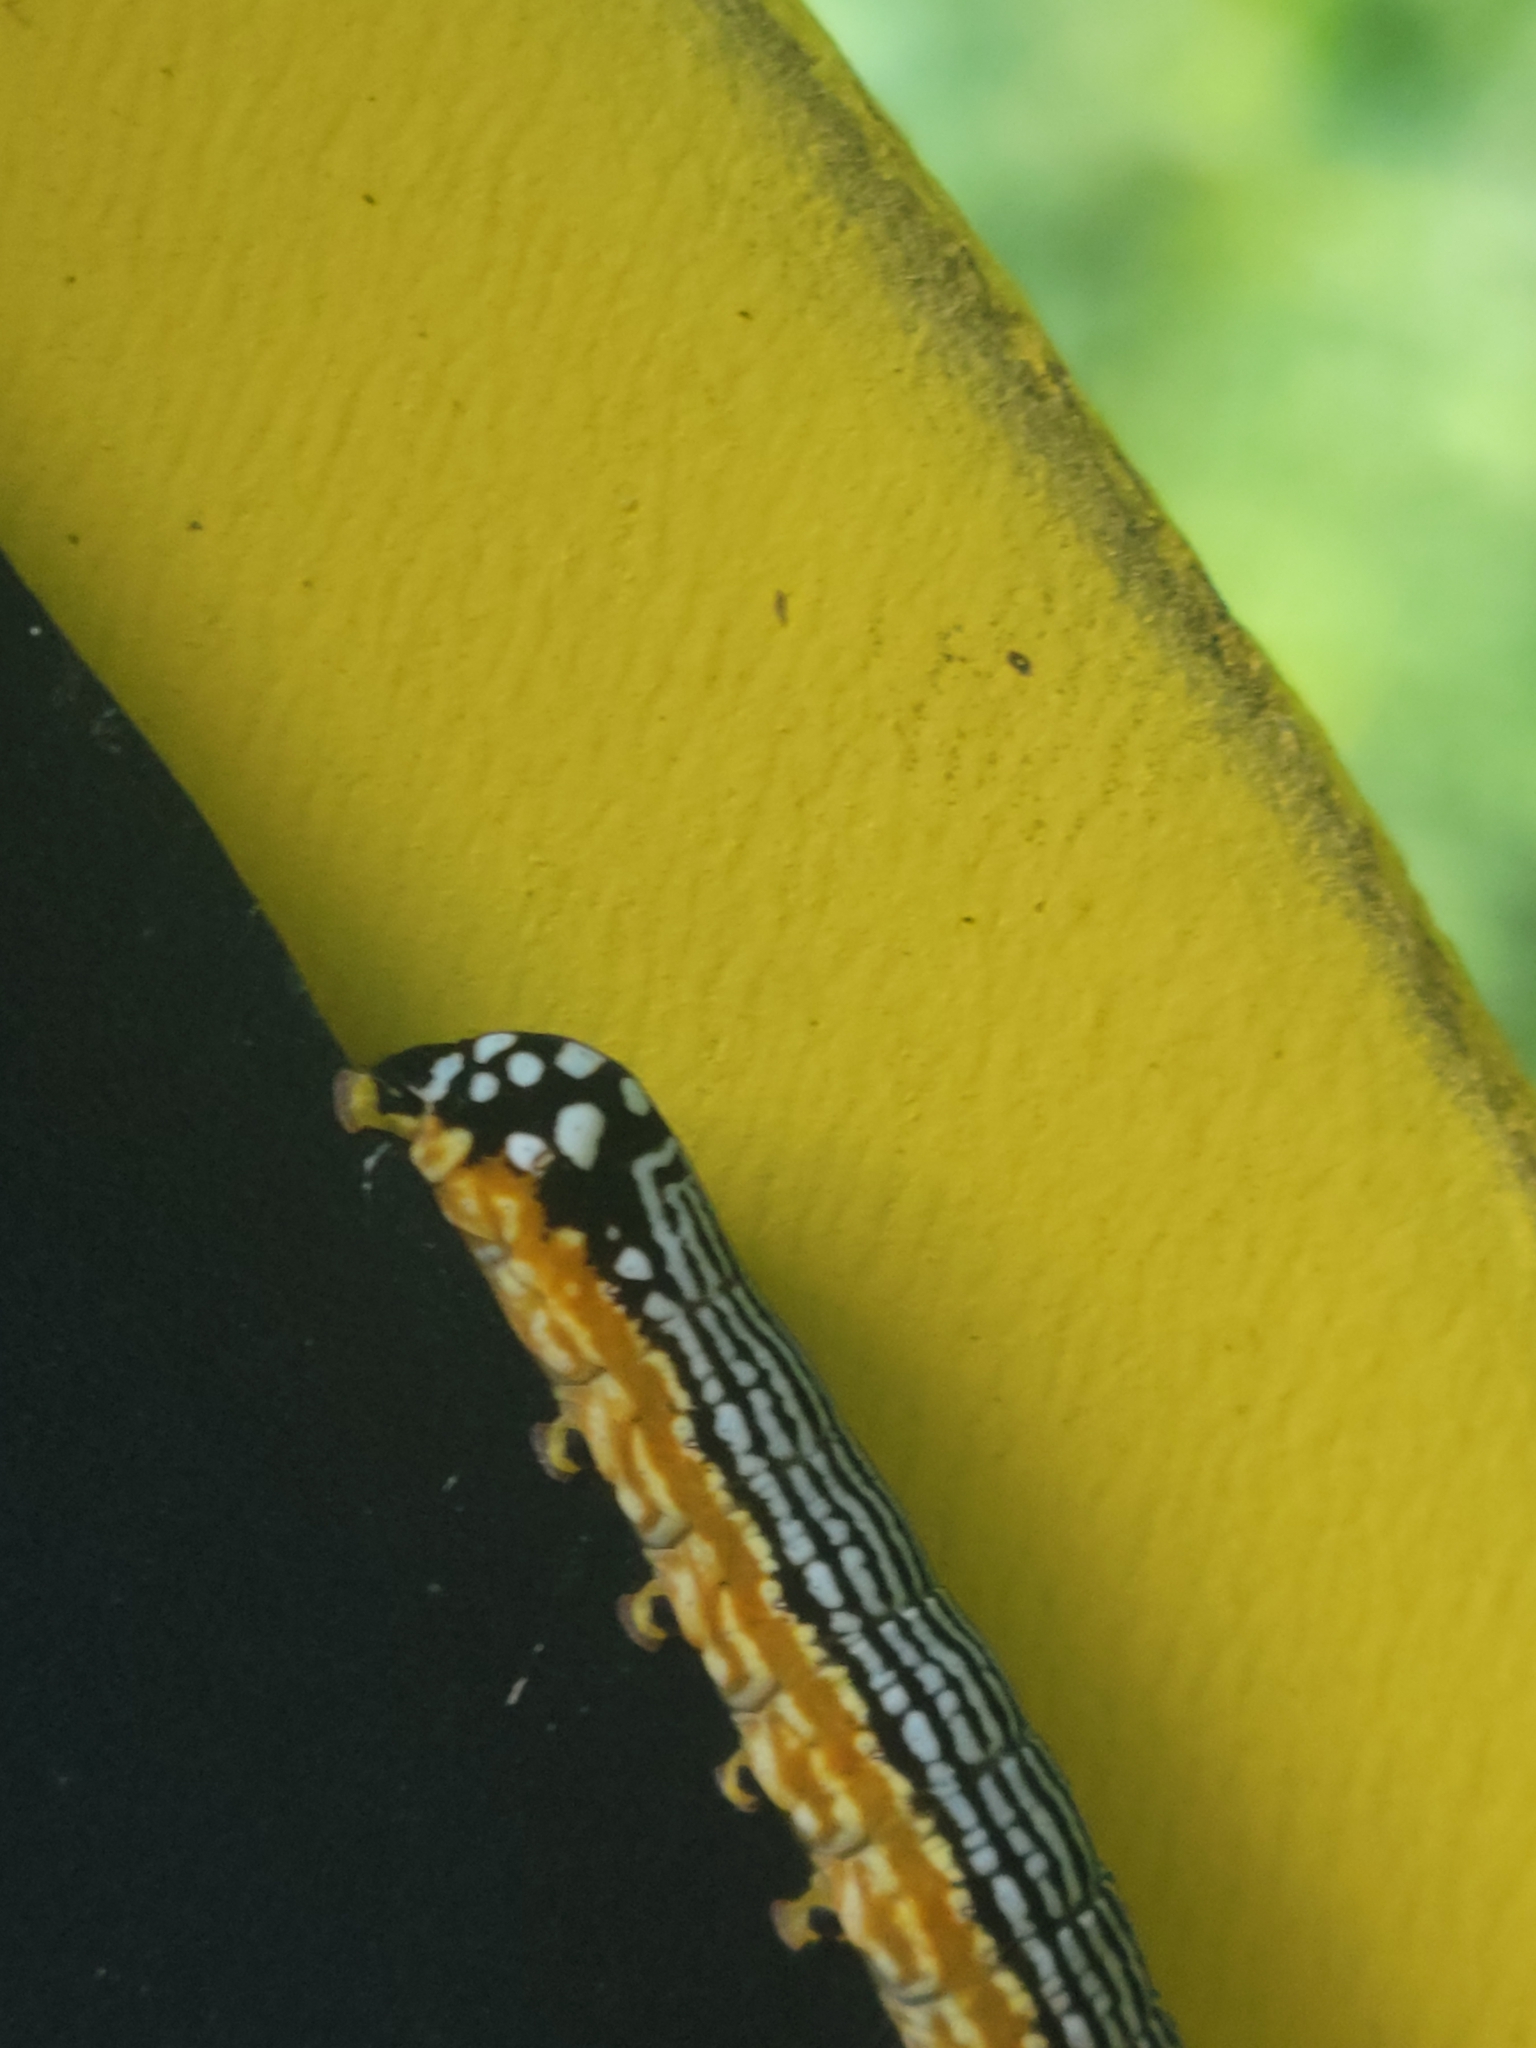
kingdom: Animalia
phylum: Arthropoda
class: Insecta
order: Lepidoptera
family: Noctuidae
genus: Phosphila
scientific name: Phosphila turbulenta
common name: Turbulent phosphila moth
